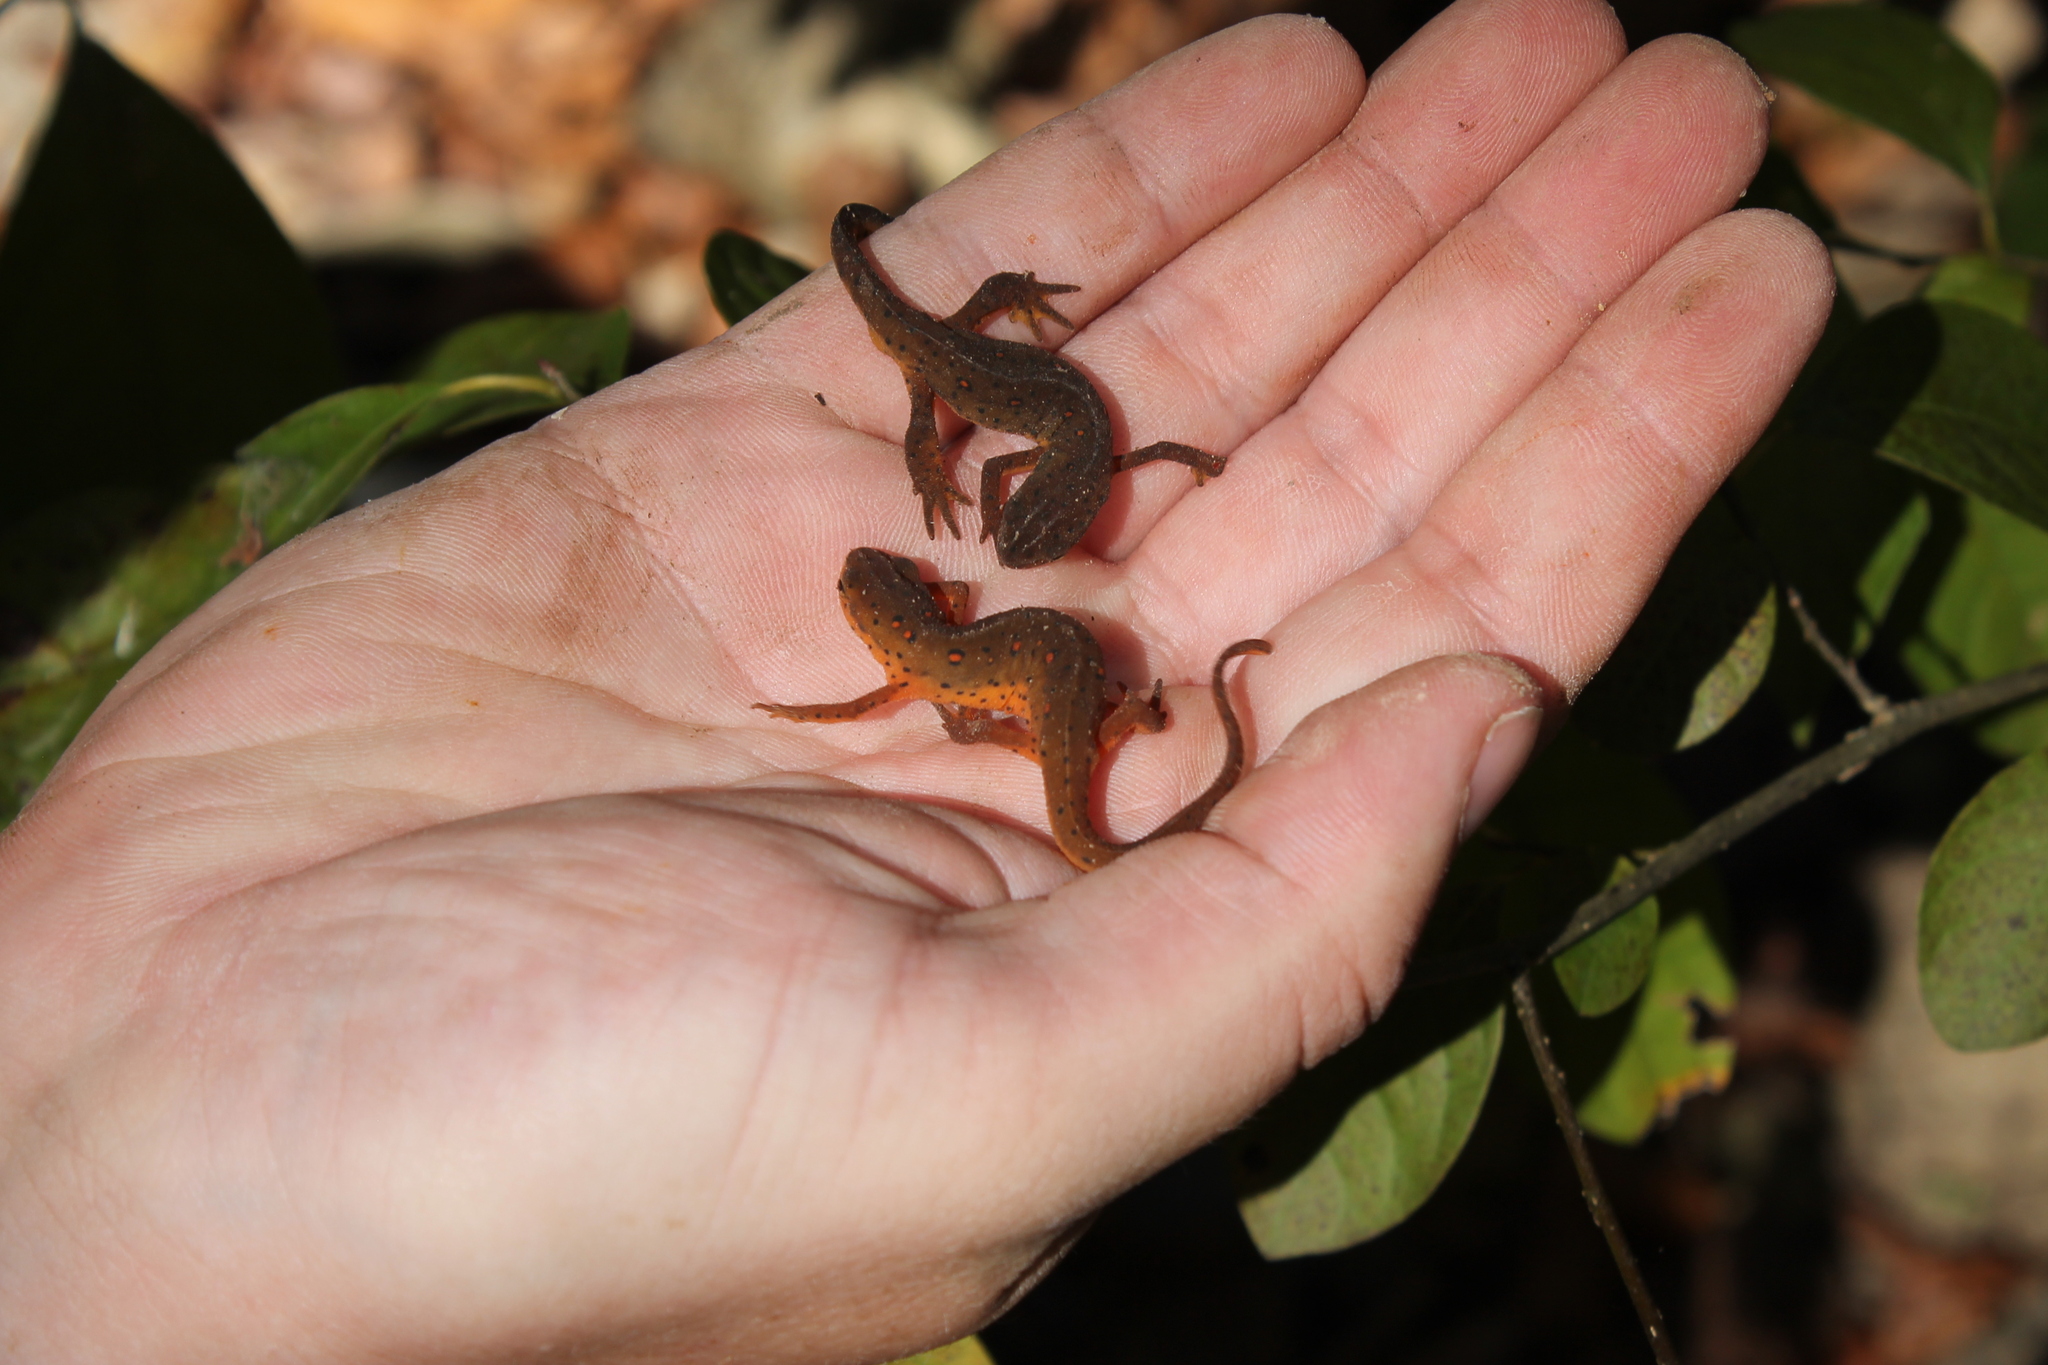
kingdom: Animalia
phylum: Chordata
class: Amphibia
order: Caudata
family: Salamandridae
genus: Notophthalmus
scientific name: Notophthalmus viridescens
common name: Eastern newt
